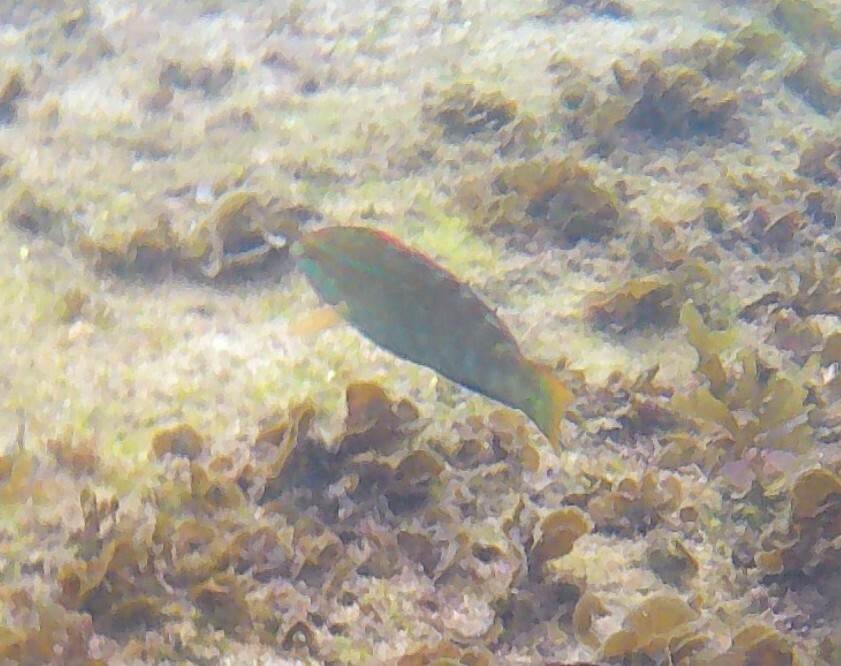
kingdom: Animalia
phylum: Chordata
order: Perciformes
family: Labridae
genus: Pseudolabrus
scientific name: Pseudolabrus guentheri
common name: Günther's wrasse
